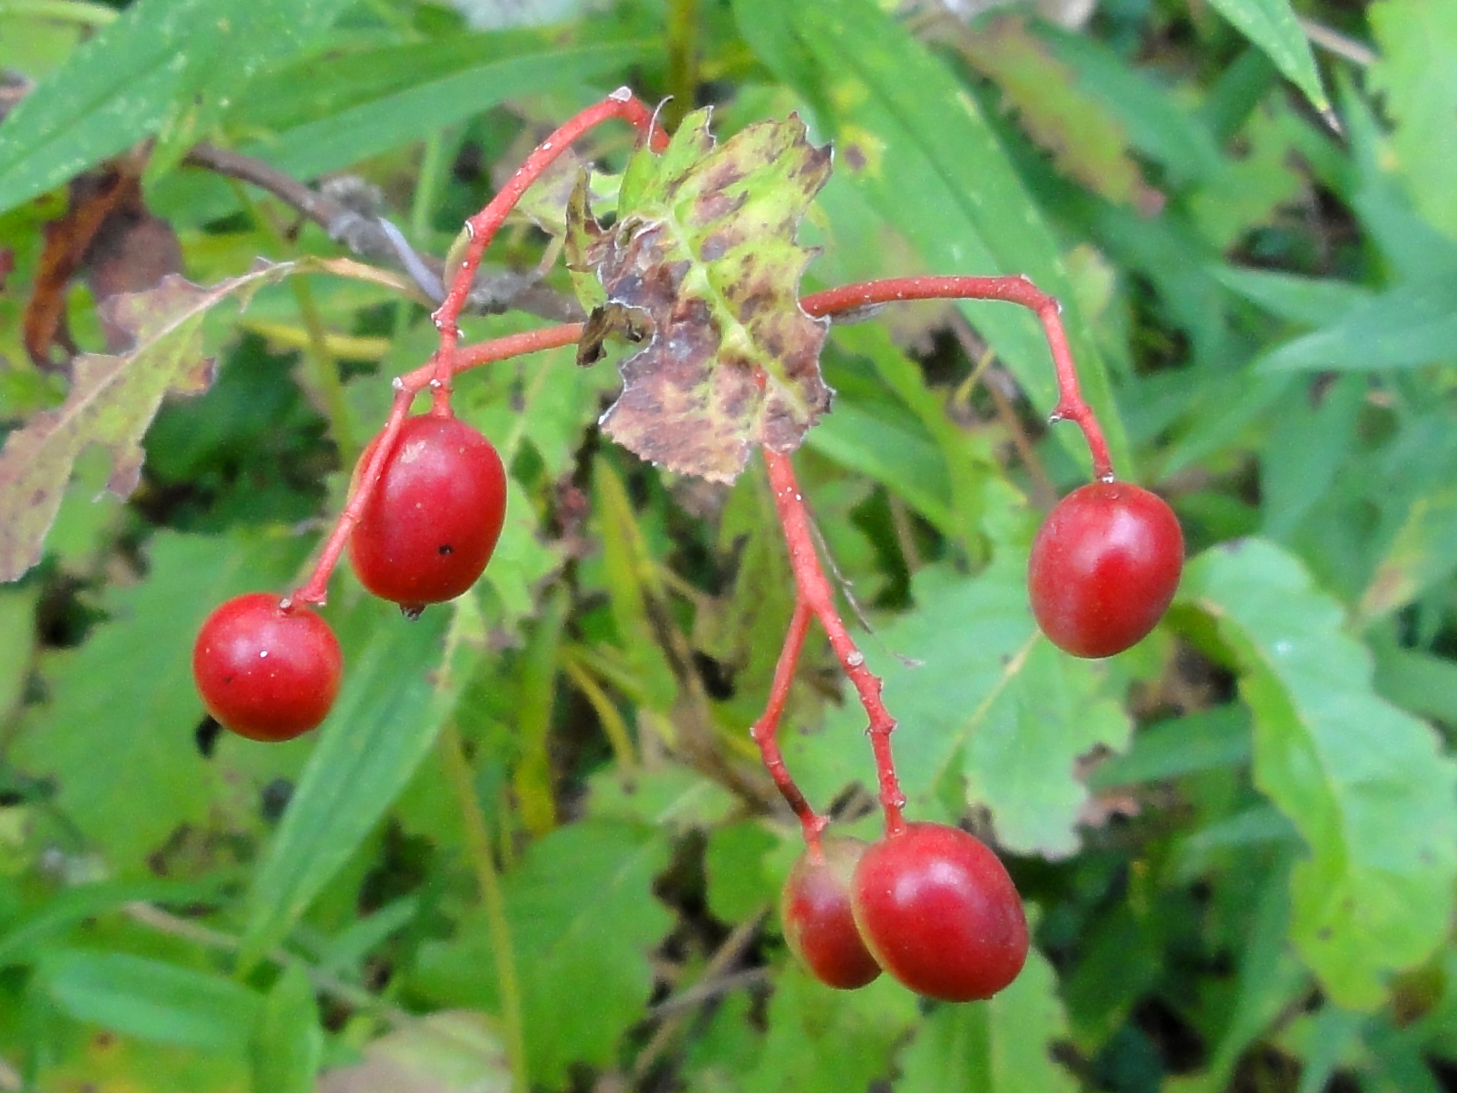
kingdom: Plantae
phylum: Tracheophyta
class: Magnoliopsida
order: Dipsacales
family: Viburnaceae
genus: Viburnum
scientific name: Viburnum lentago
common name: Black haw
